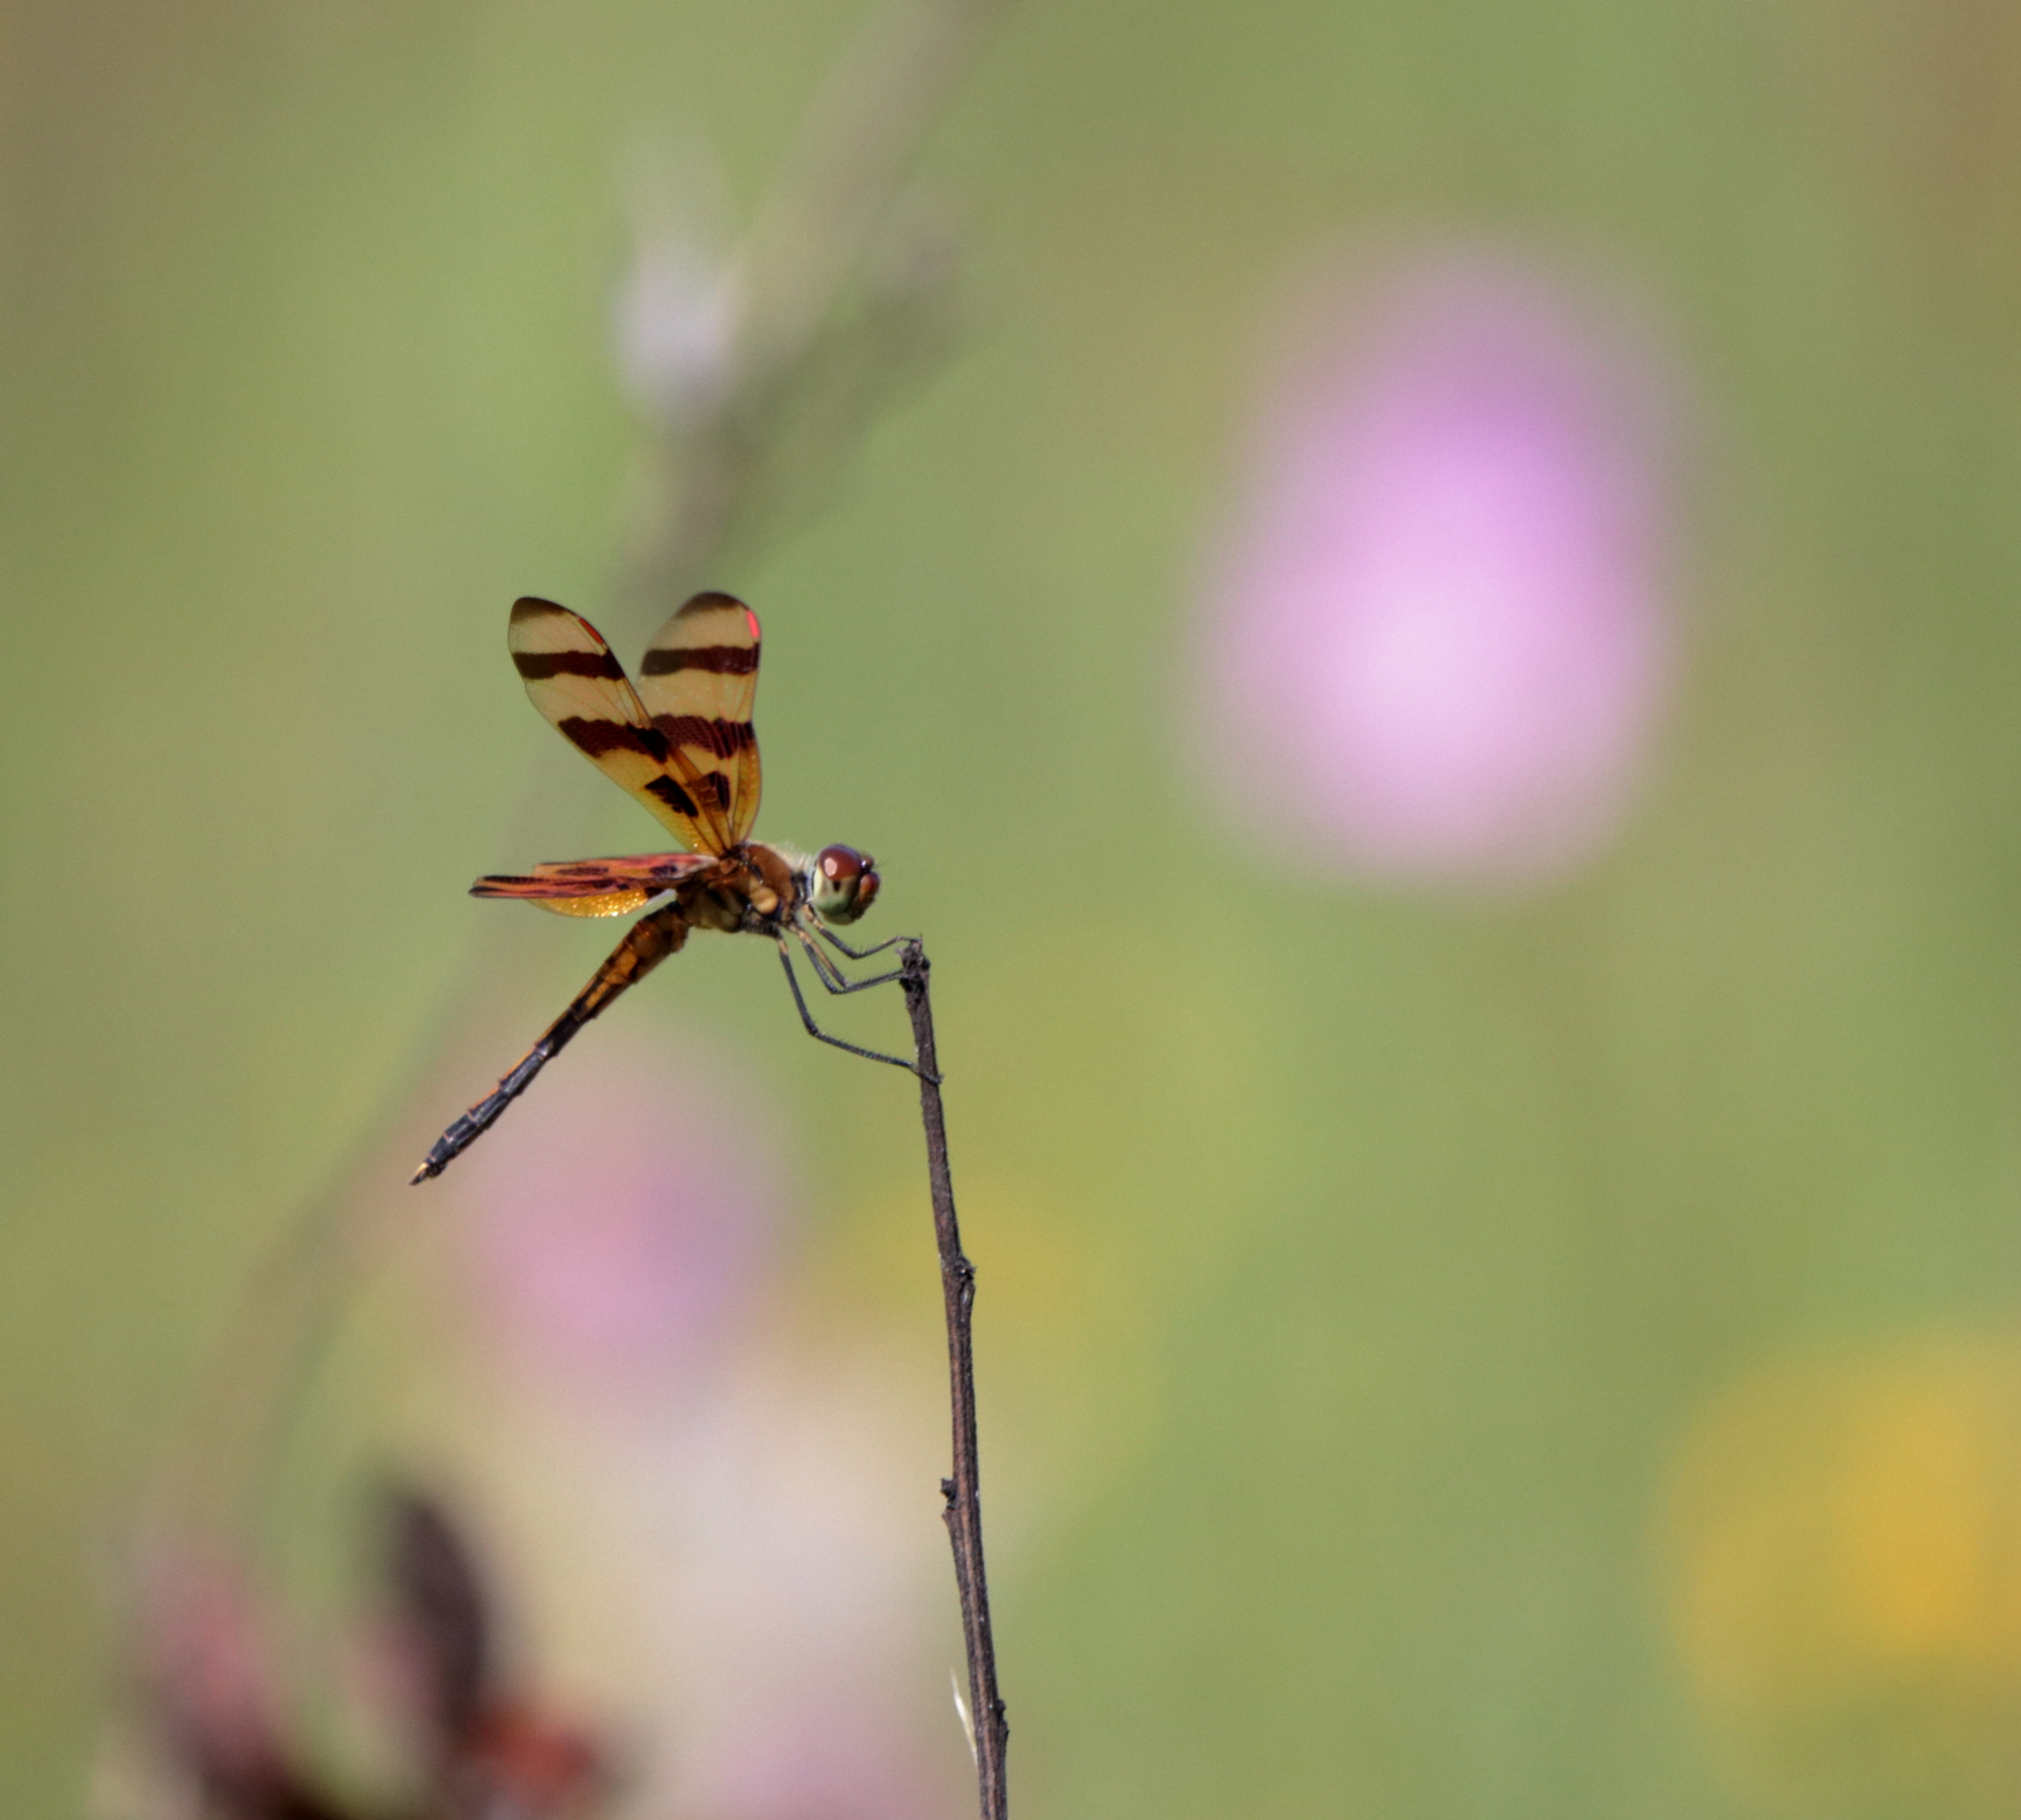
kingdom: Animalia
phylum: Arthropoda
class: Insecta
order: Odonata
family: Libellulidae
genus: Celithemis
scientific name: Celithemis eponina
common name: Halloween pennant
